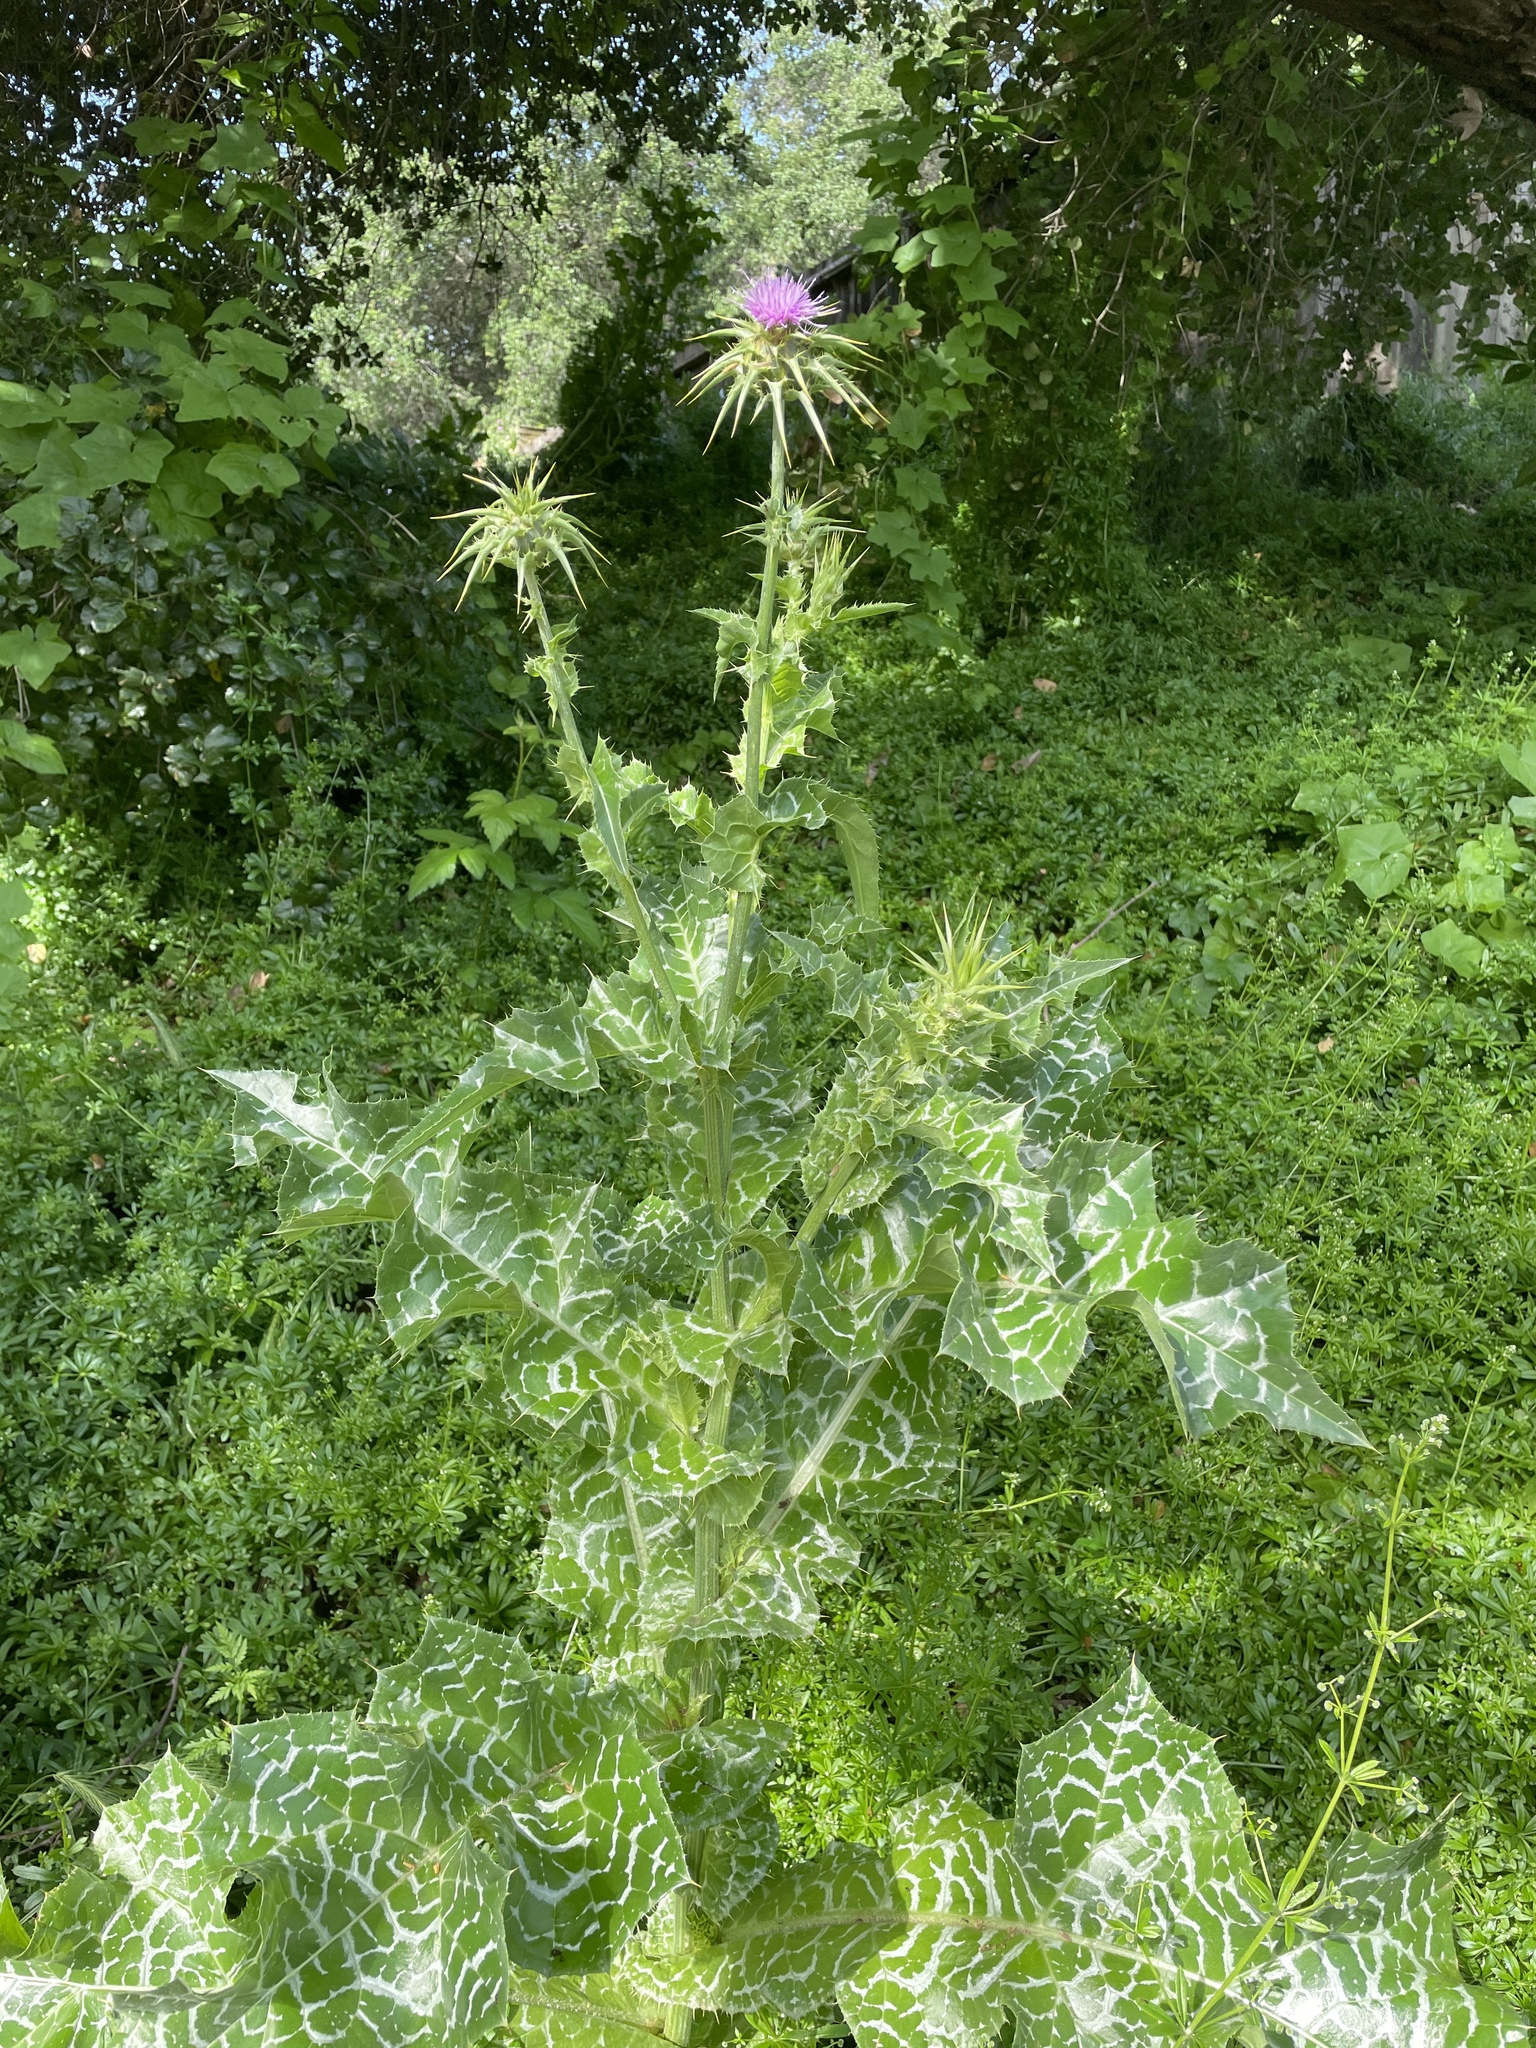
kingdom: Plantae
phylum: Tracheophyta
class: Magnoliopsida
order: Asterales
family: Asteraceae
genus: Silybum
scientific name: Silybum marianum
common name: Milk thistle
